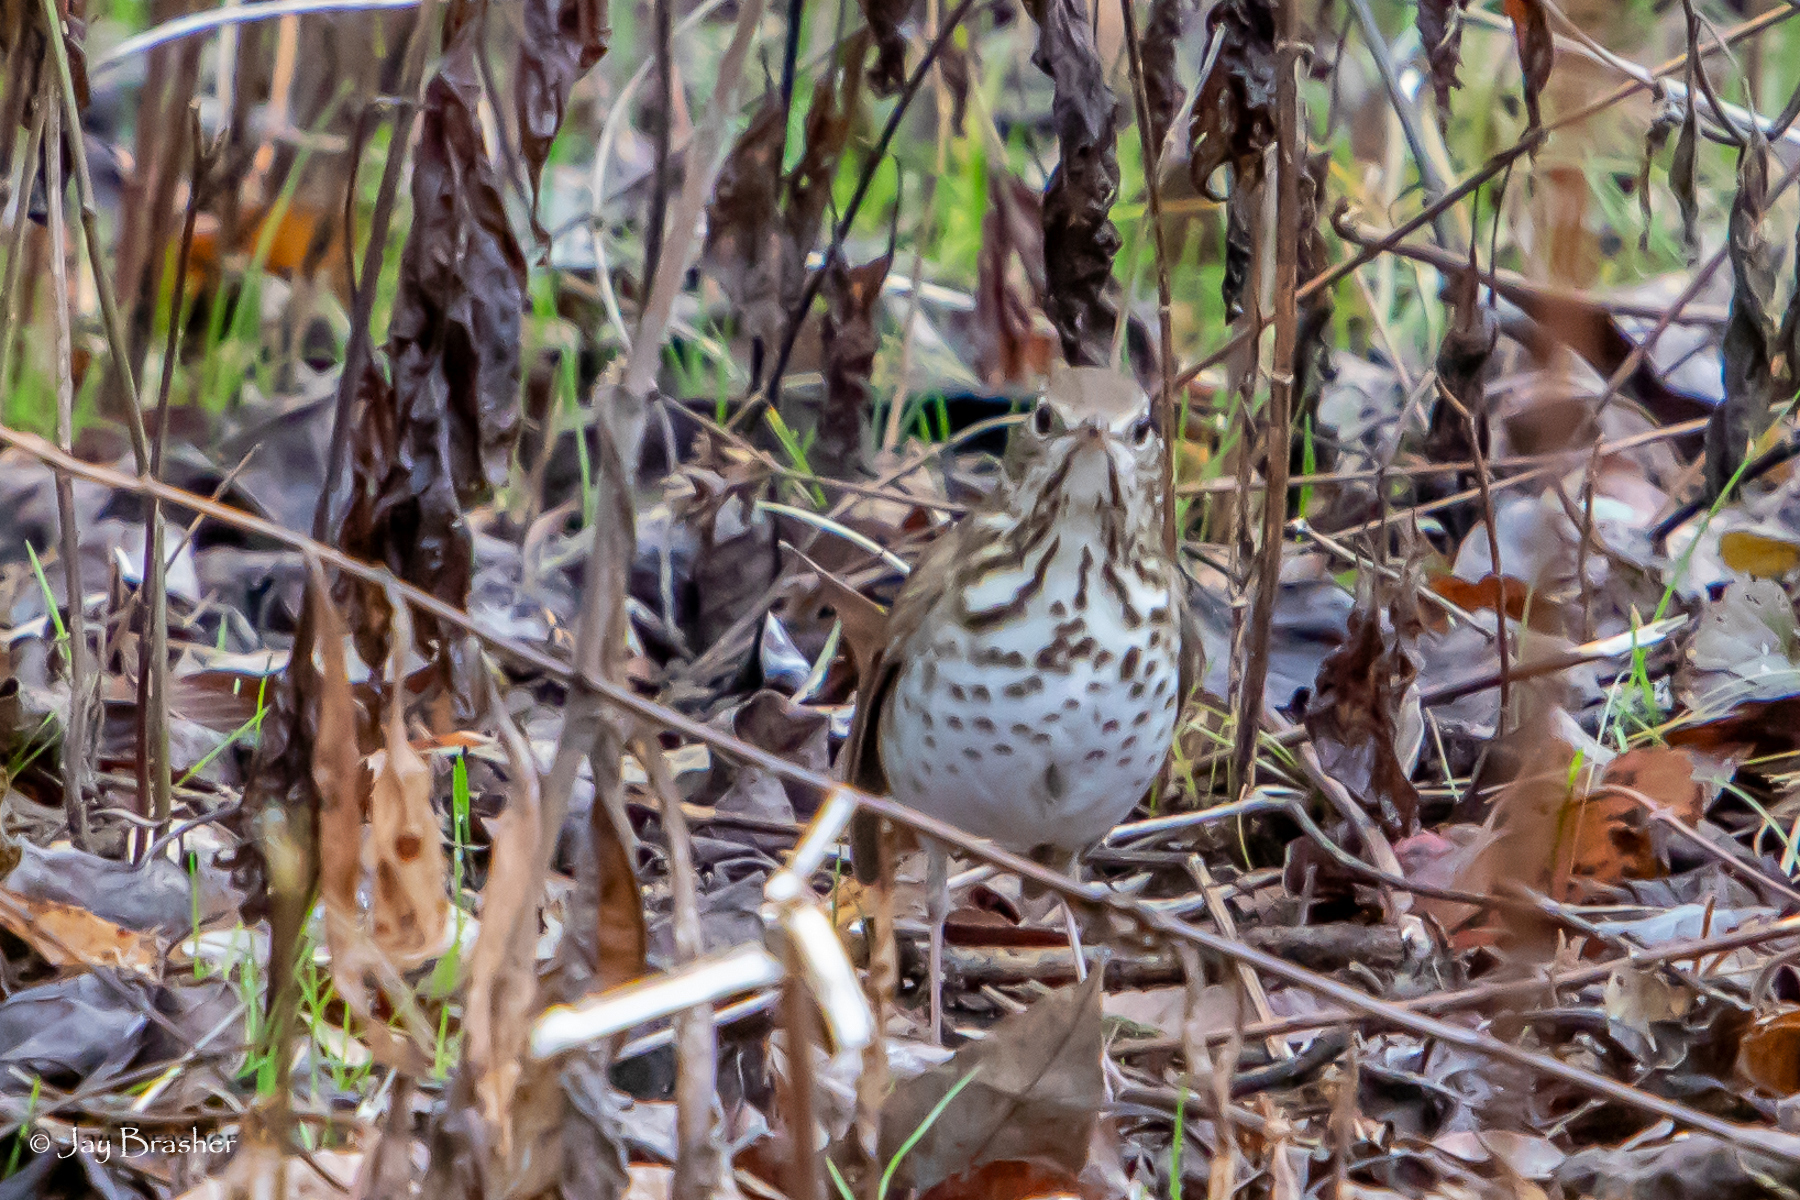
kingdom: Animalia
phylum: Chordata
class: Aves
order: Passeriformes
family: Turdidae
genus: Catharus
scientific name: Catharus guttatus
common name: Hermit thrush
